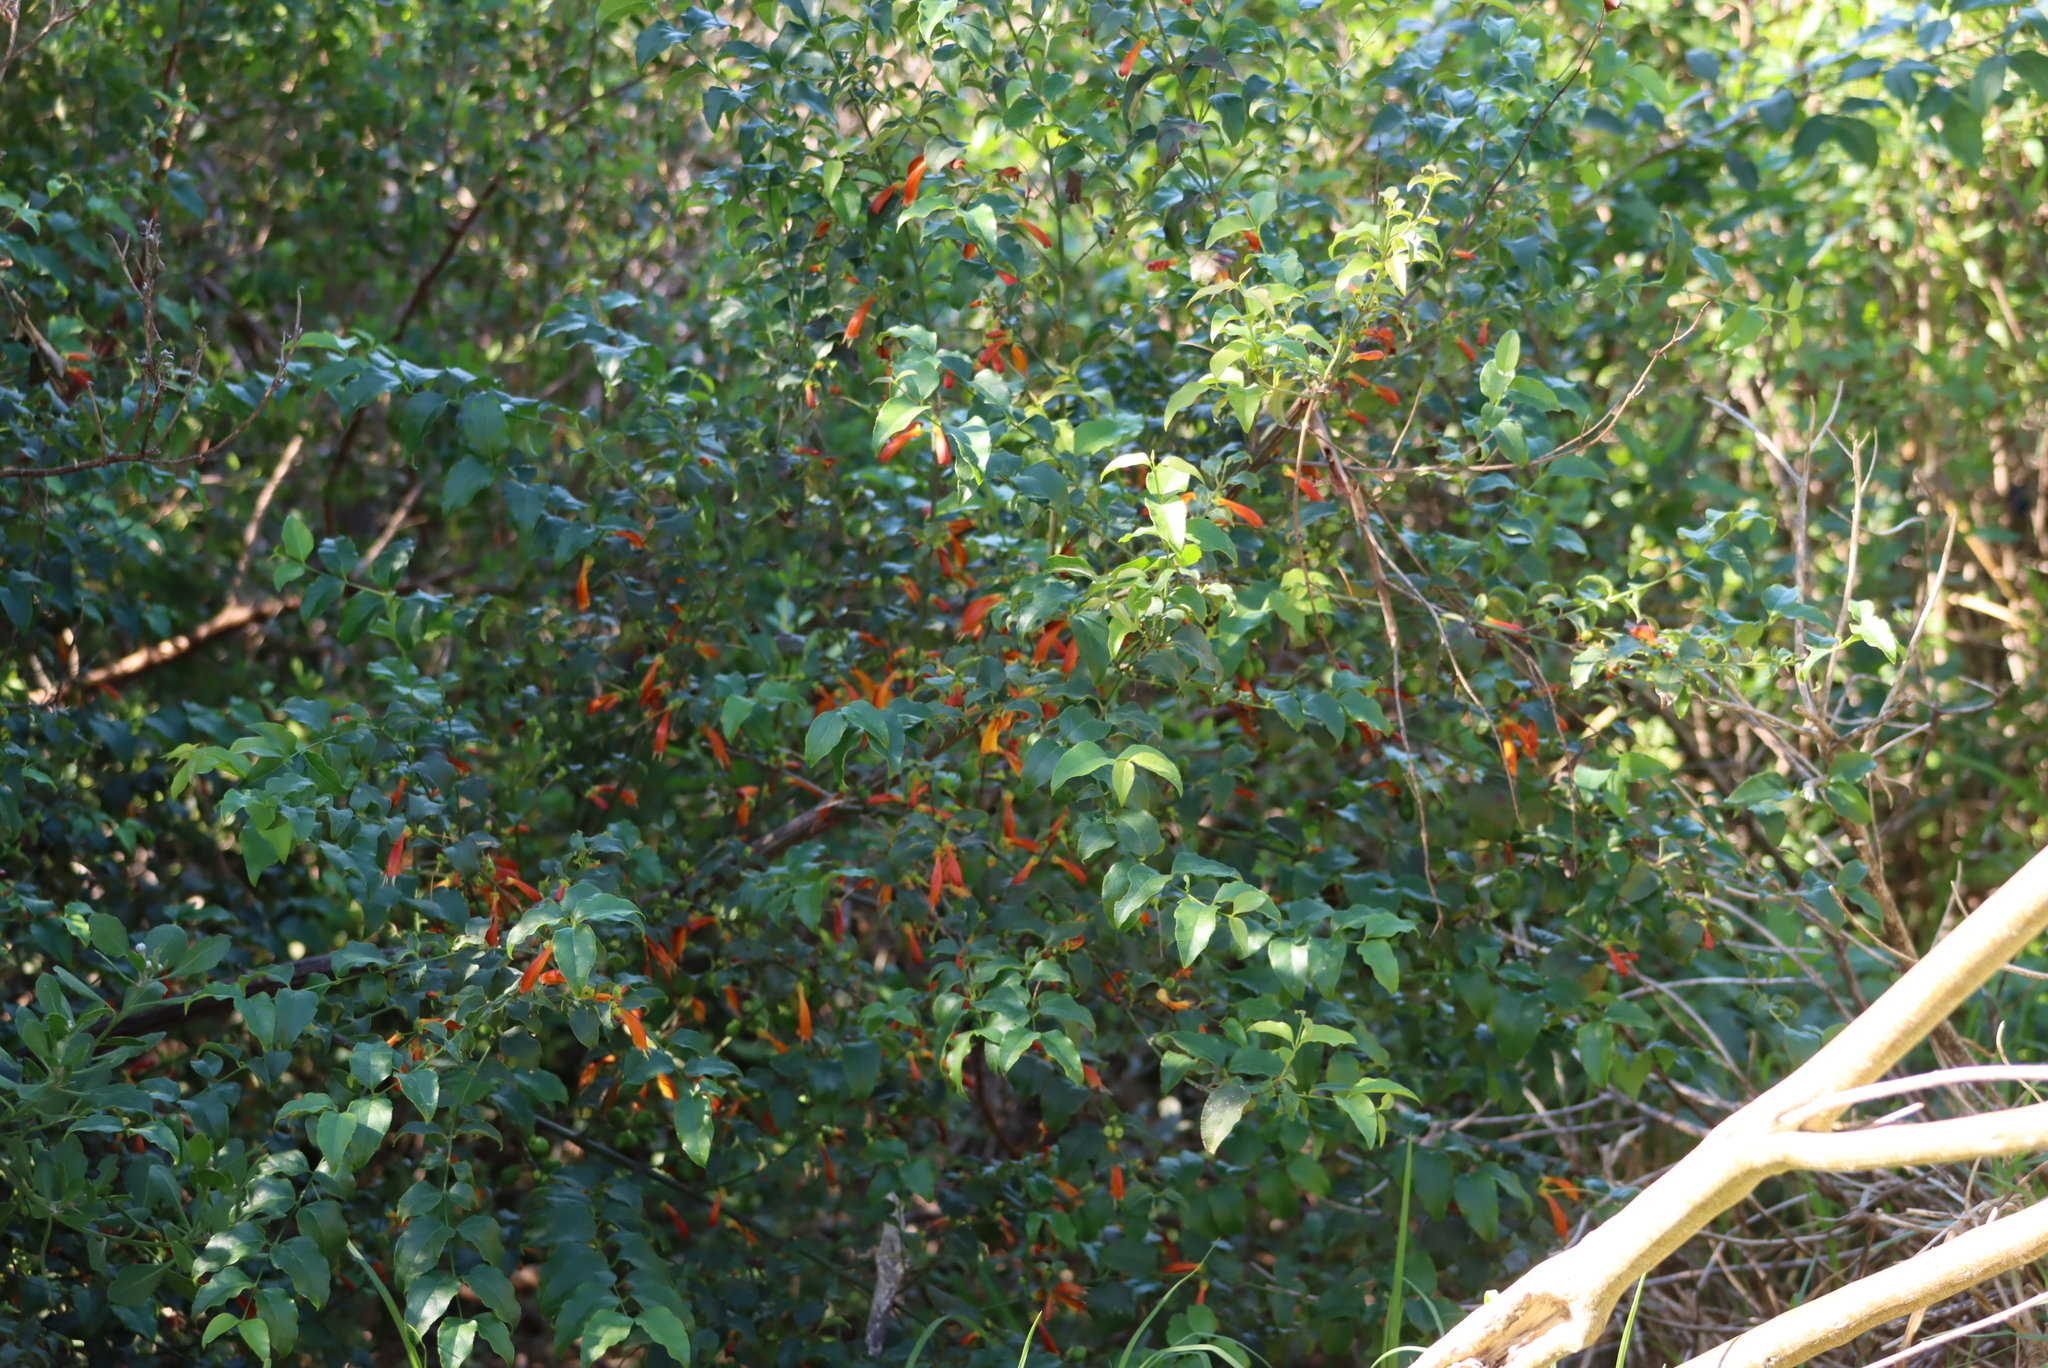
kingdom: Plantae
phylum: Tracheophyta
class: Magnoliopsida
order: Lamiales
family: Stilbaceae
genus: Halleria
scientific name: Halleria lucida
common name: Tree fuschia
